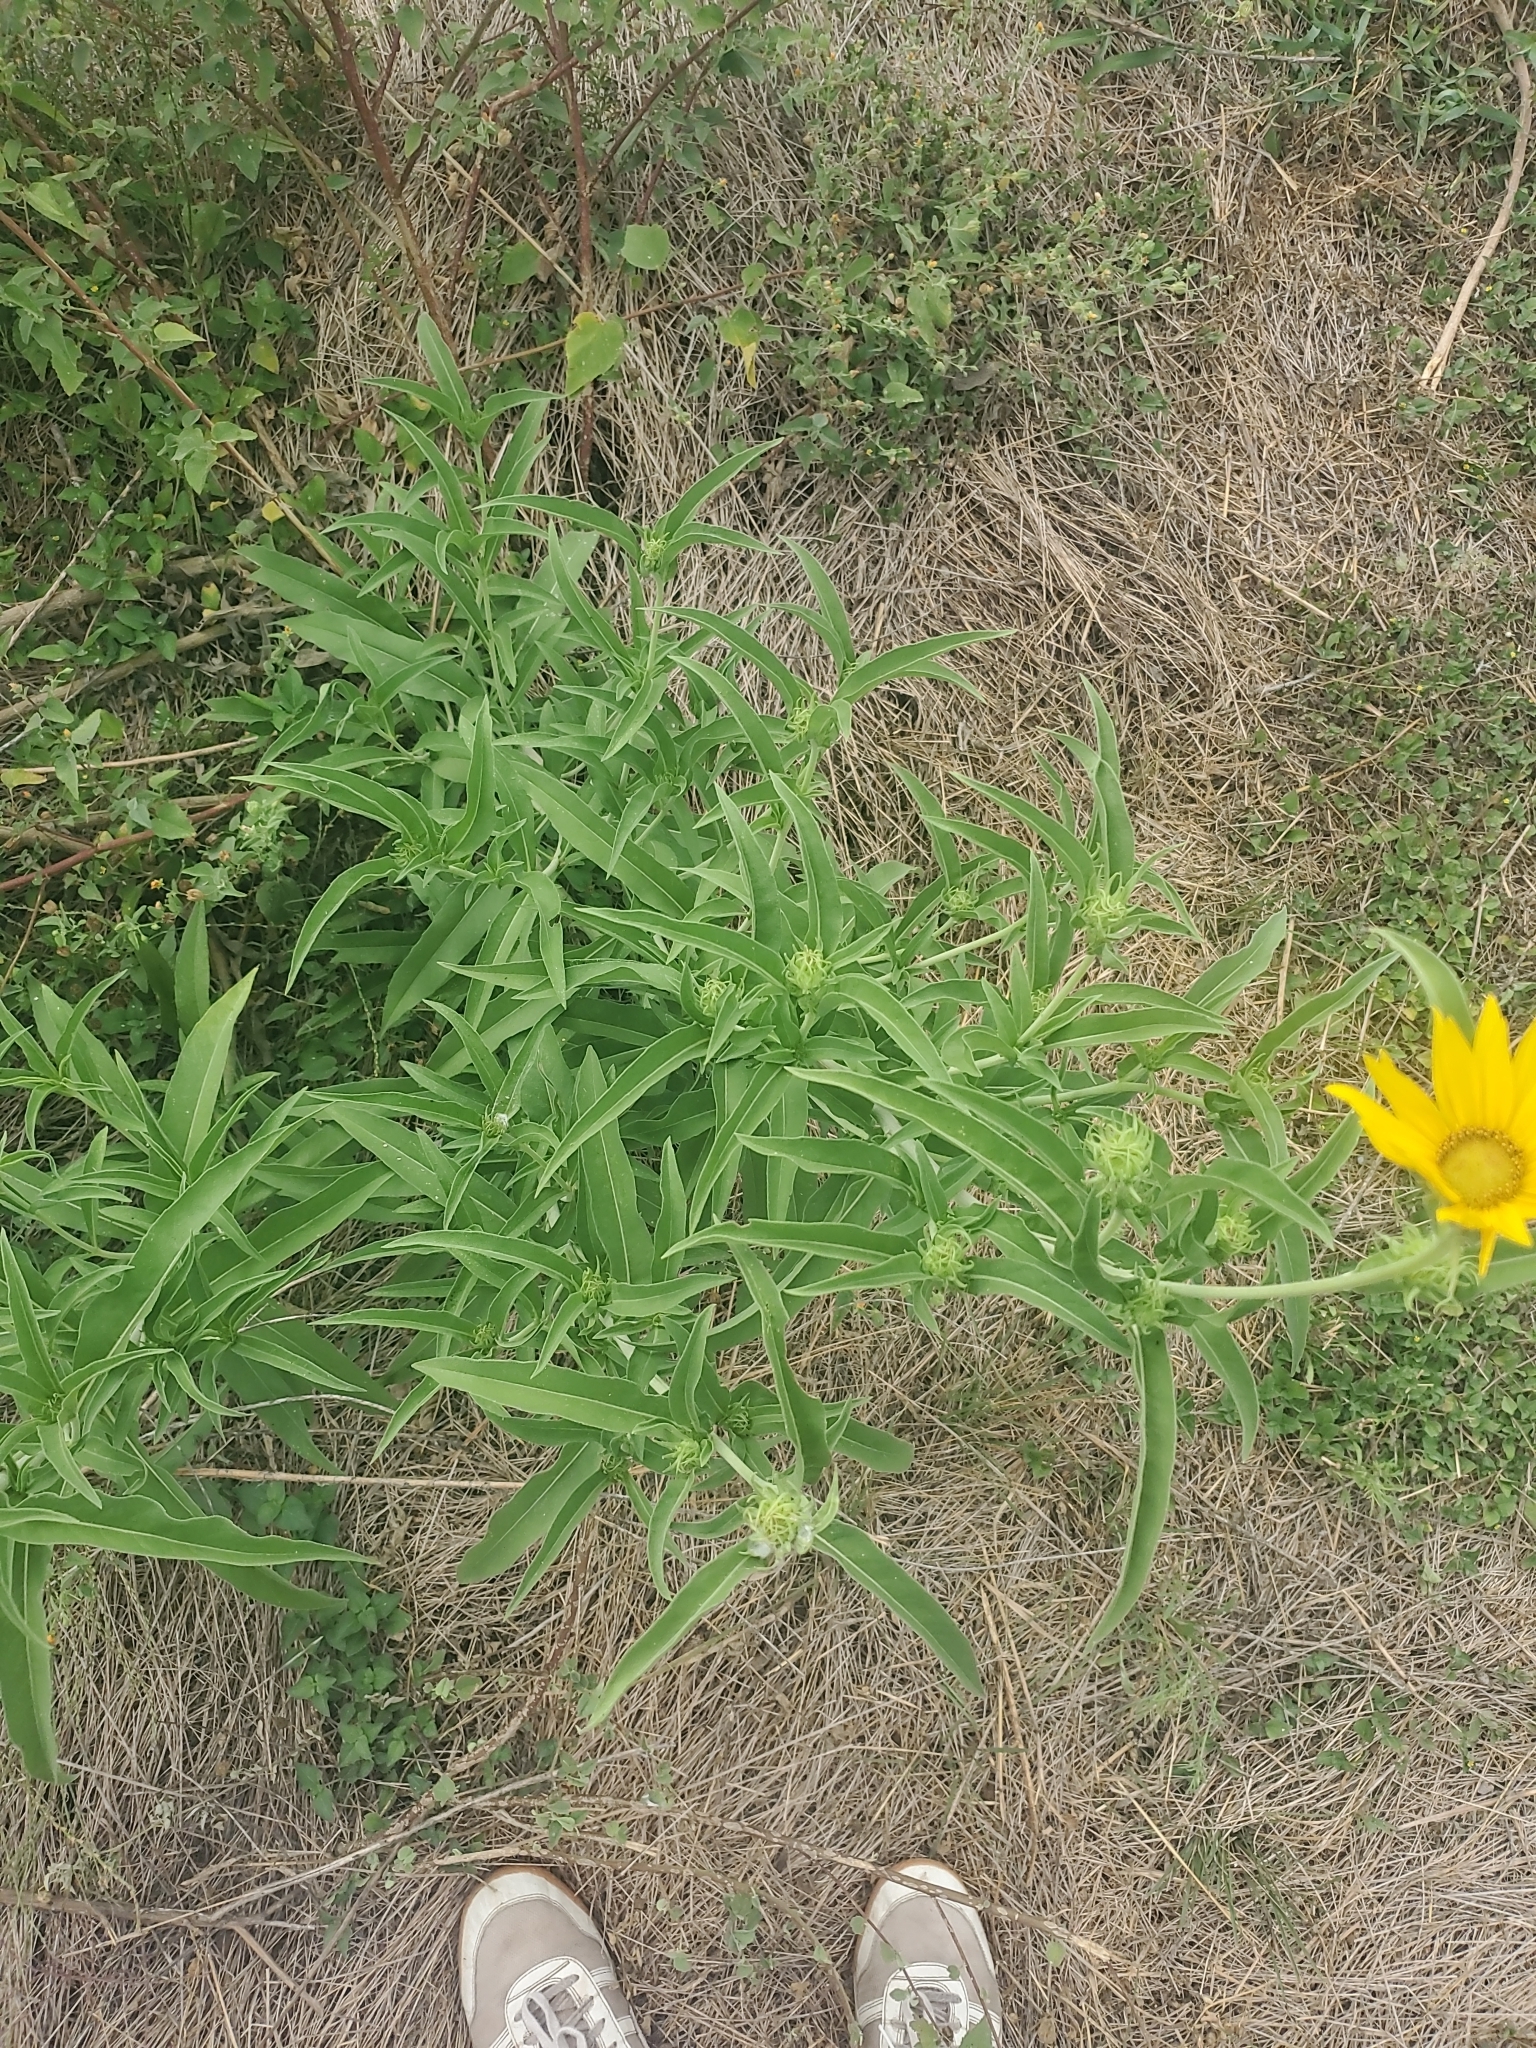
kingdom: Plantae
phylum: Tracheophyta
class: Magnoliopsida
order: Asterales
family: Asteraceae
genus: Helianthus
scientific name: Helianthus maximiliani
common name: Maximilian's sunflower
